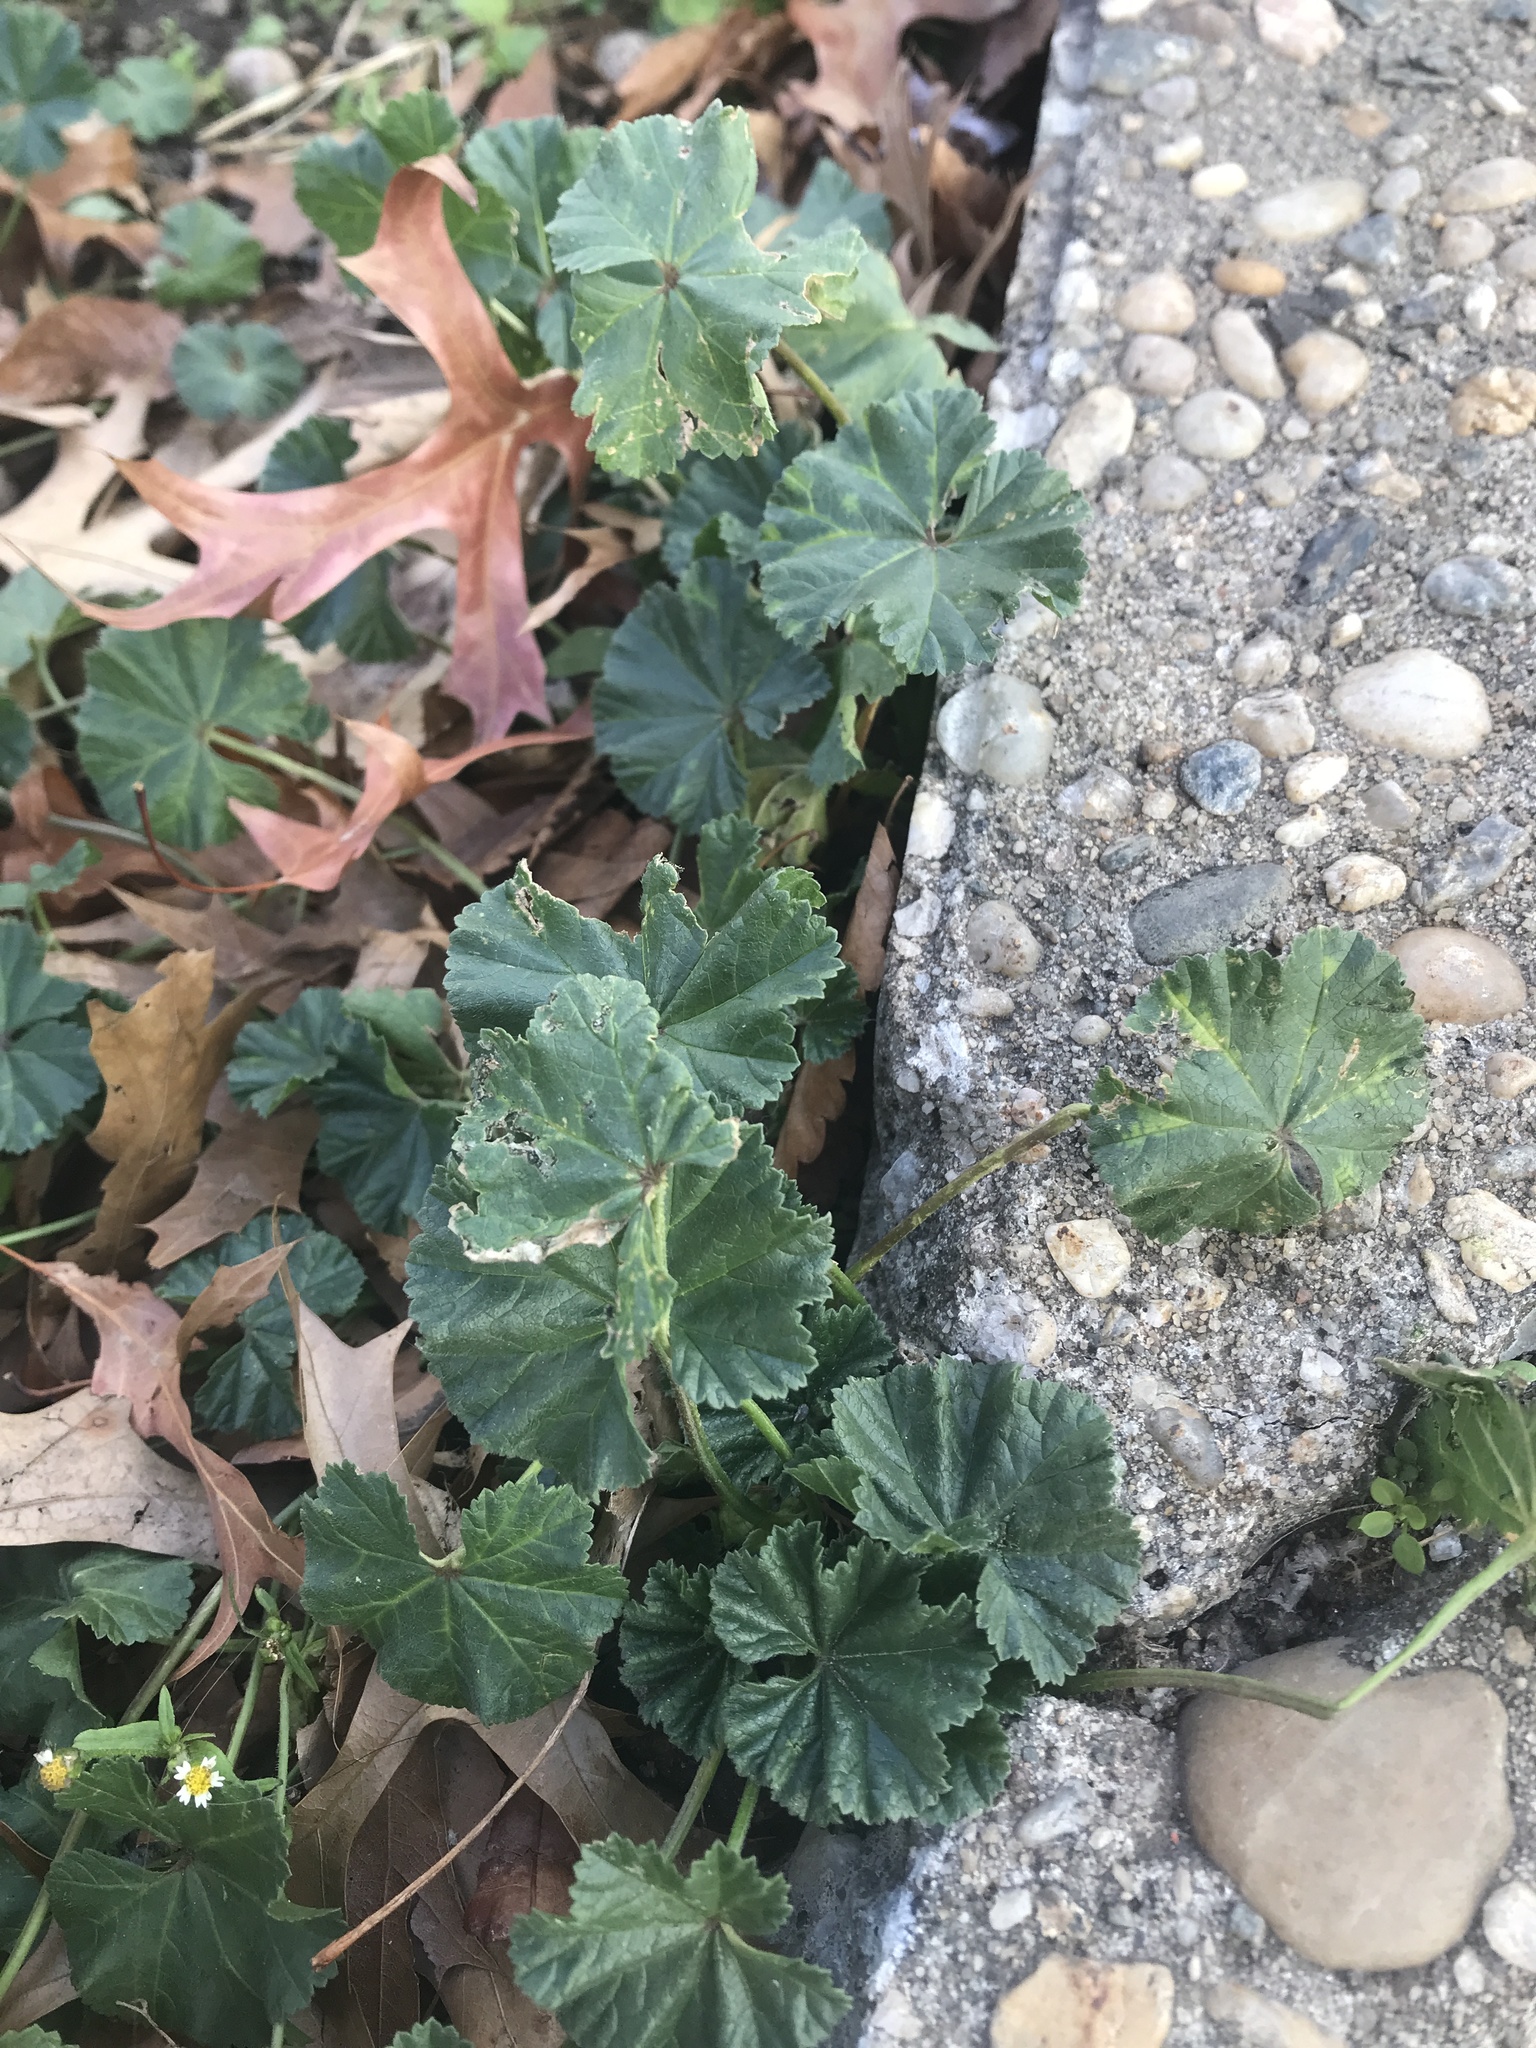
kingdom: Plantae
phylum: Tracheophyta
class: Magnoliopsida
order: Malvales
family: Malvaceae
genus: Malva
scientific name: Malva neglecta
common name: Common mallow
